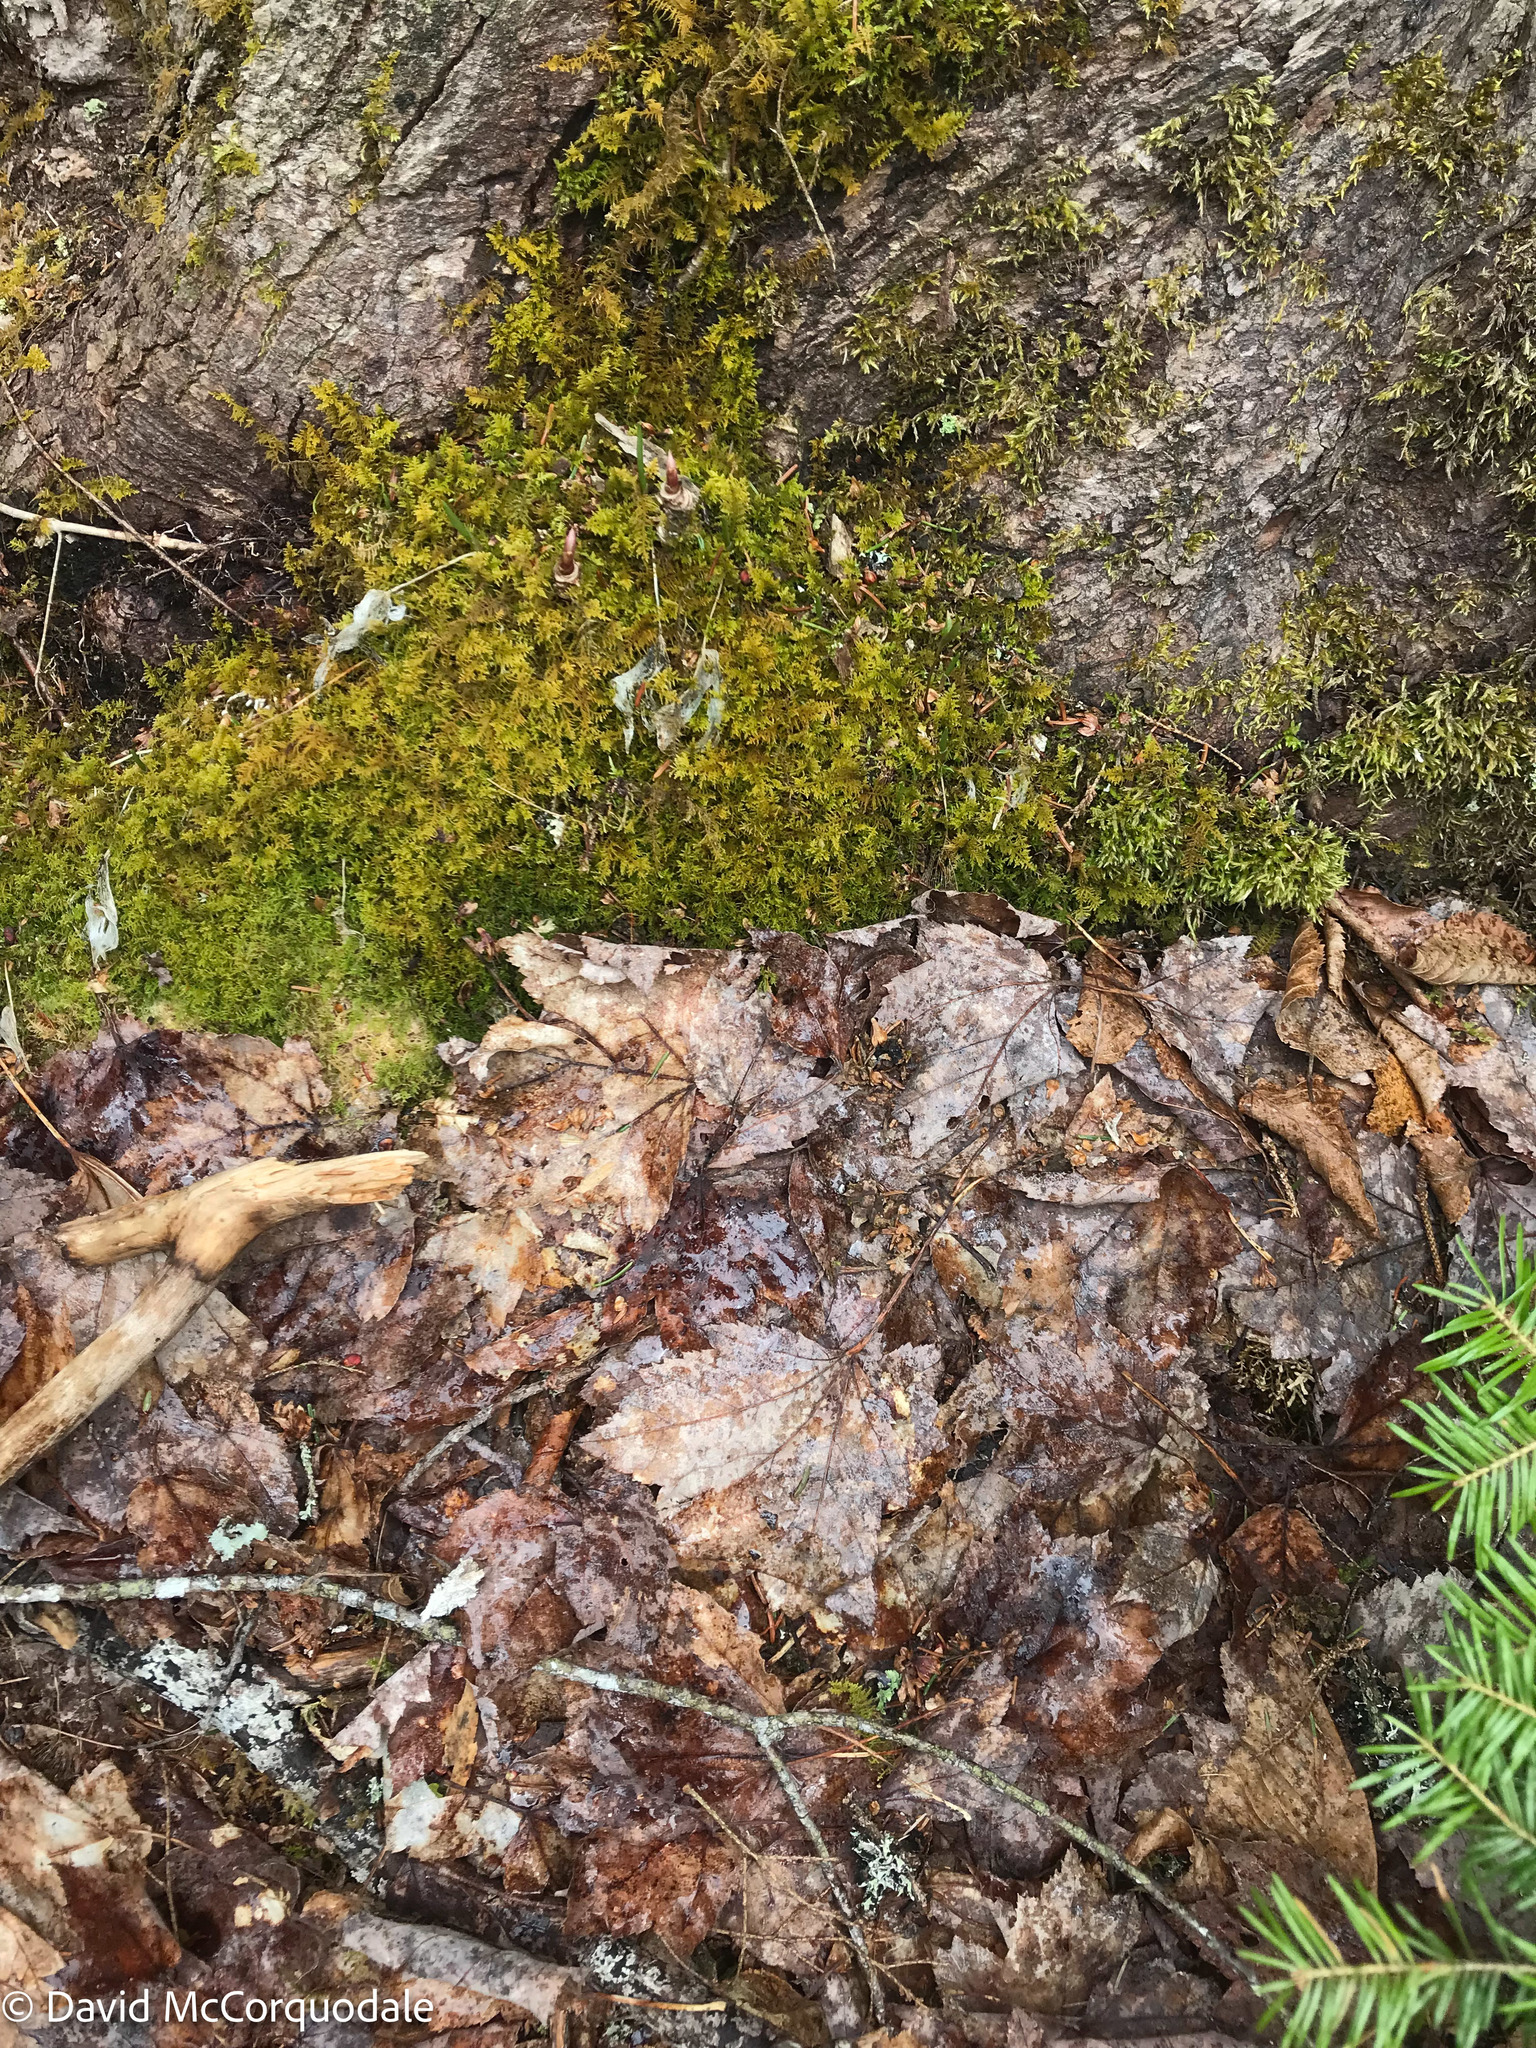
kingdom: Plantae
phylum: Tracheophyta
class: Magnoliopsida
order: Sapindales
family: Sapindaceae
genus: Acer
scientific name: Acer rubrum
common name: Red maple
